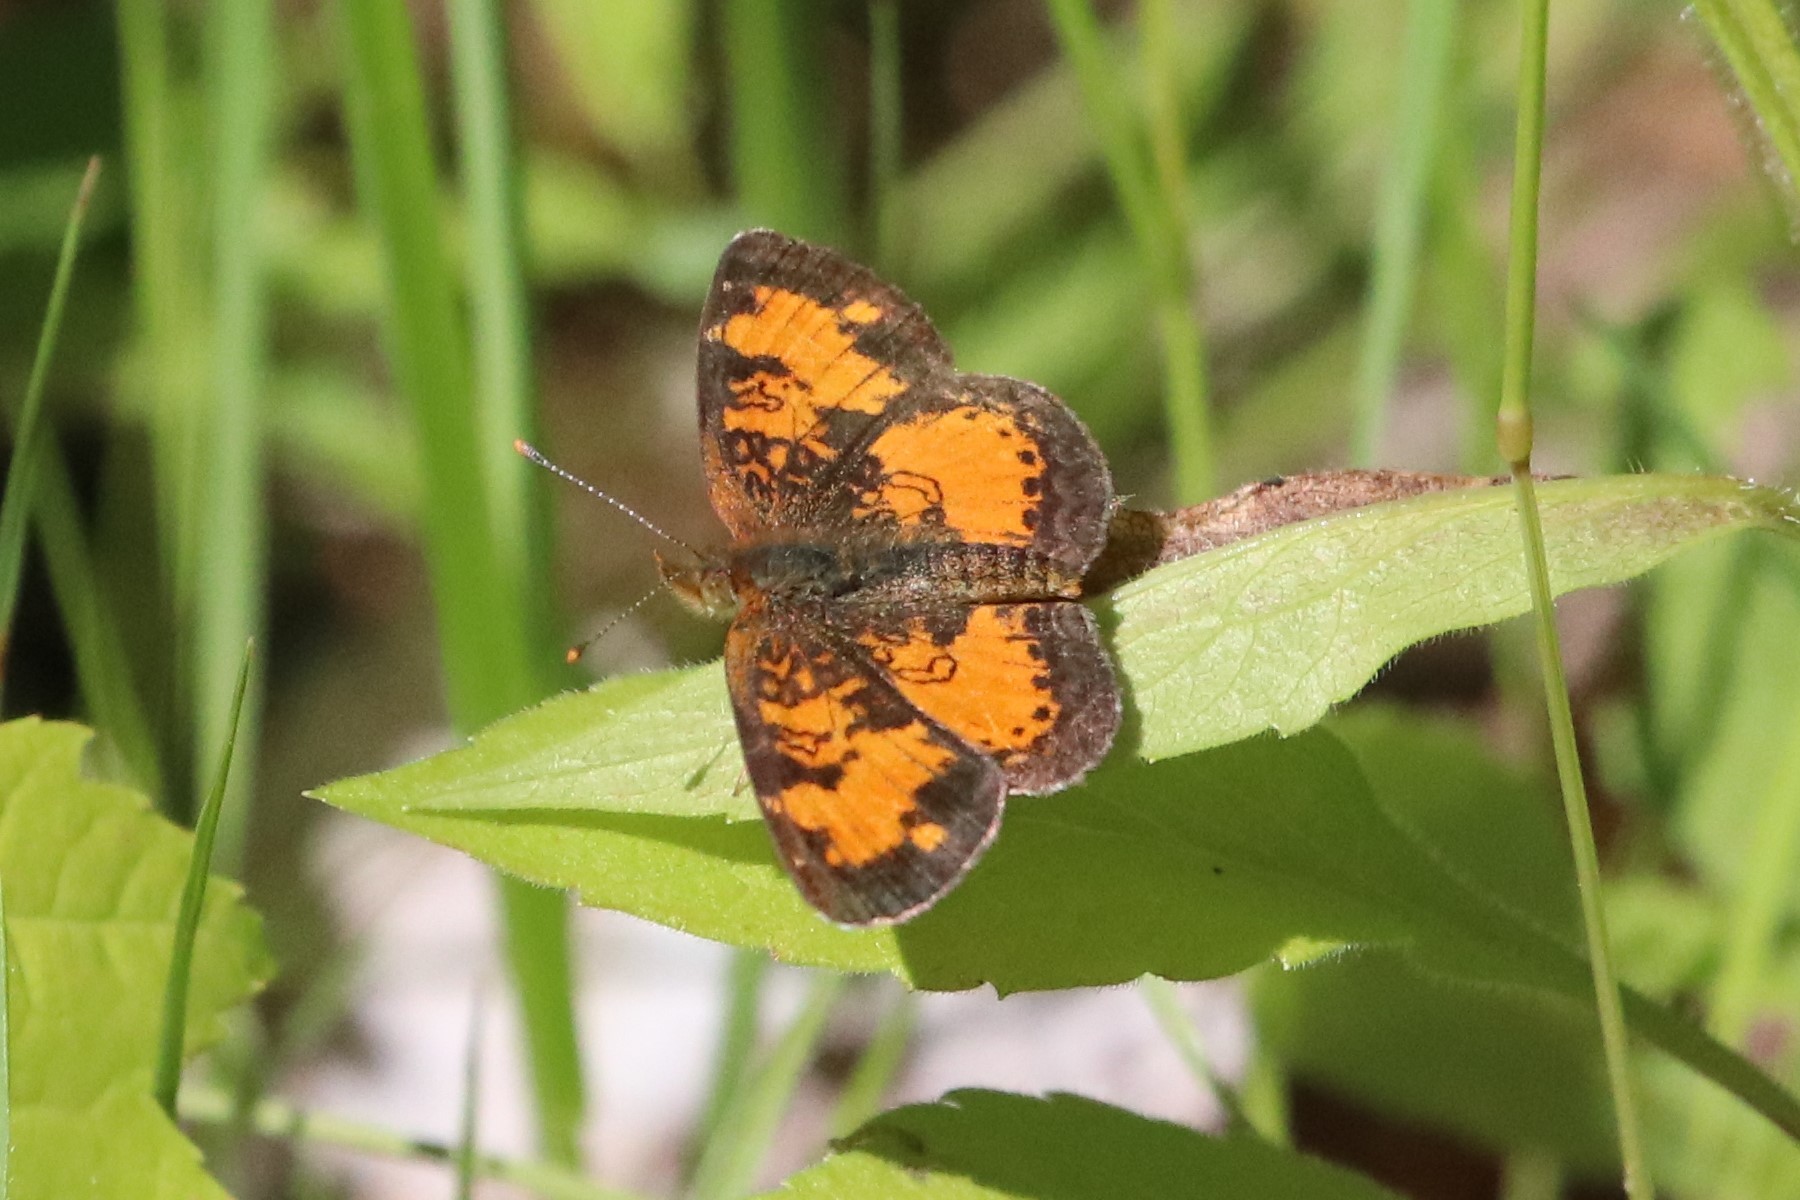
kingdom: Animalia
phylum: Arthropoda
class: Insecta
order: Lepidoptera
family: Nymphalidae
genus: Phyciodes
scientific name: Phyciodes tharos
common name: Pearl crescent
